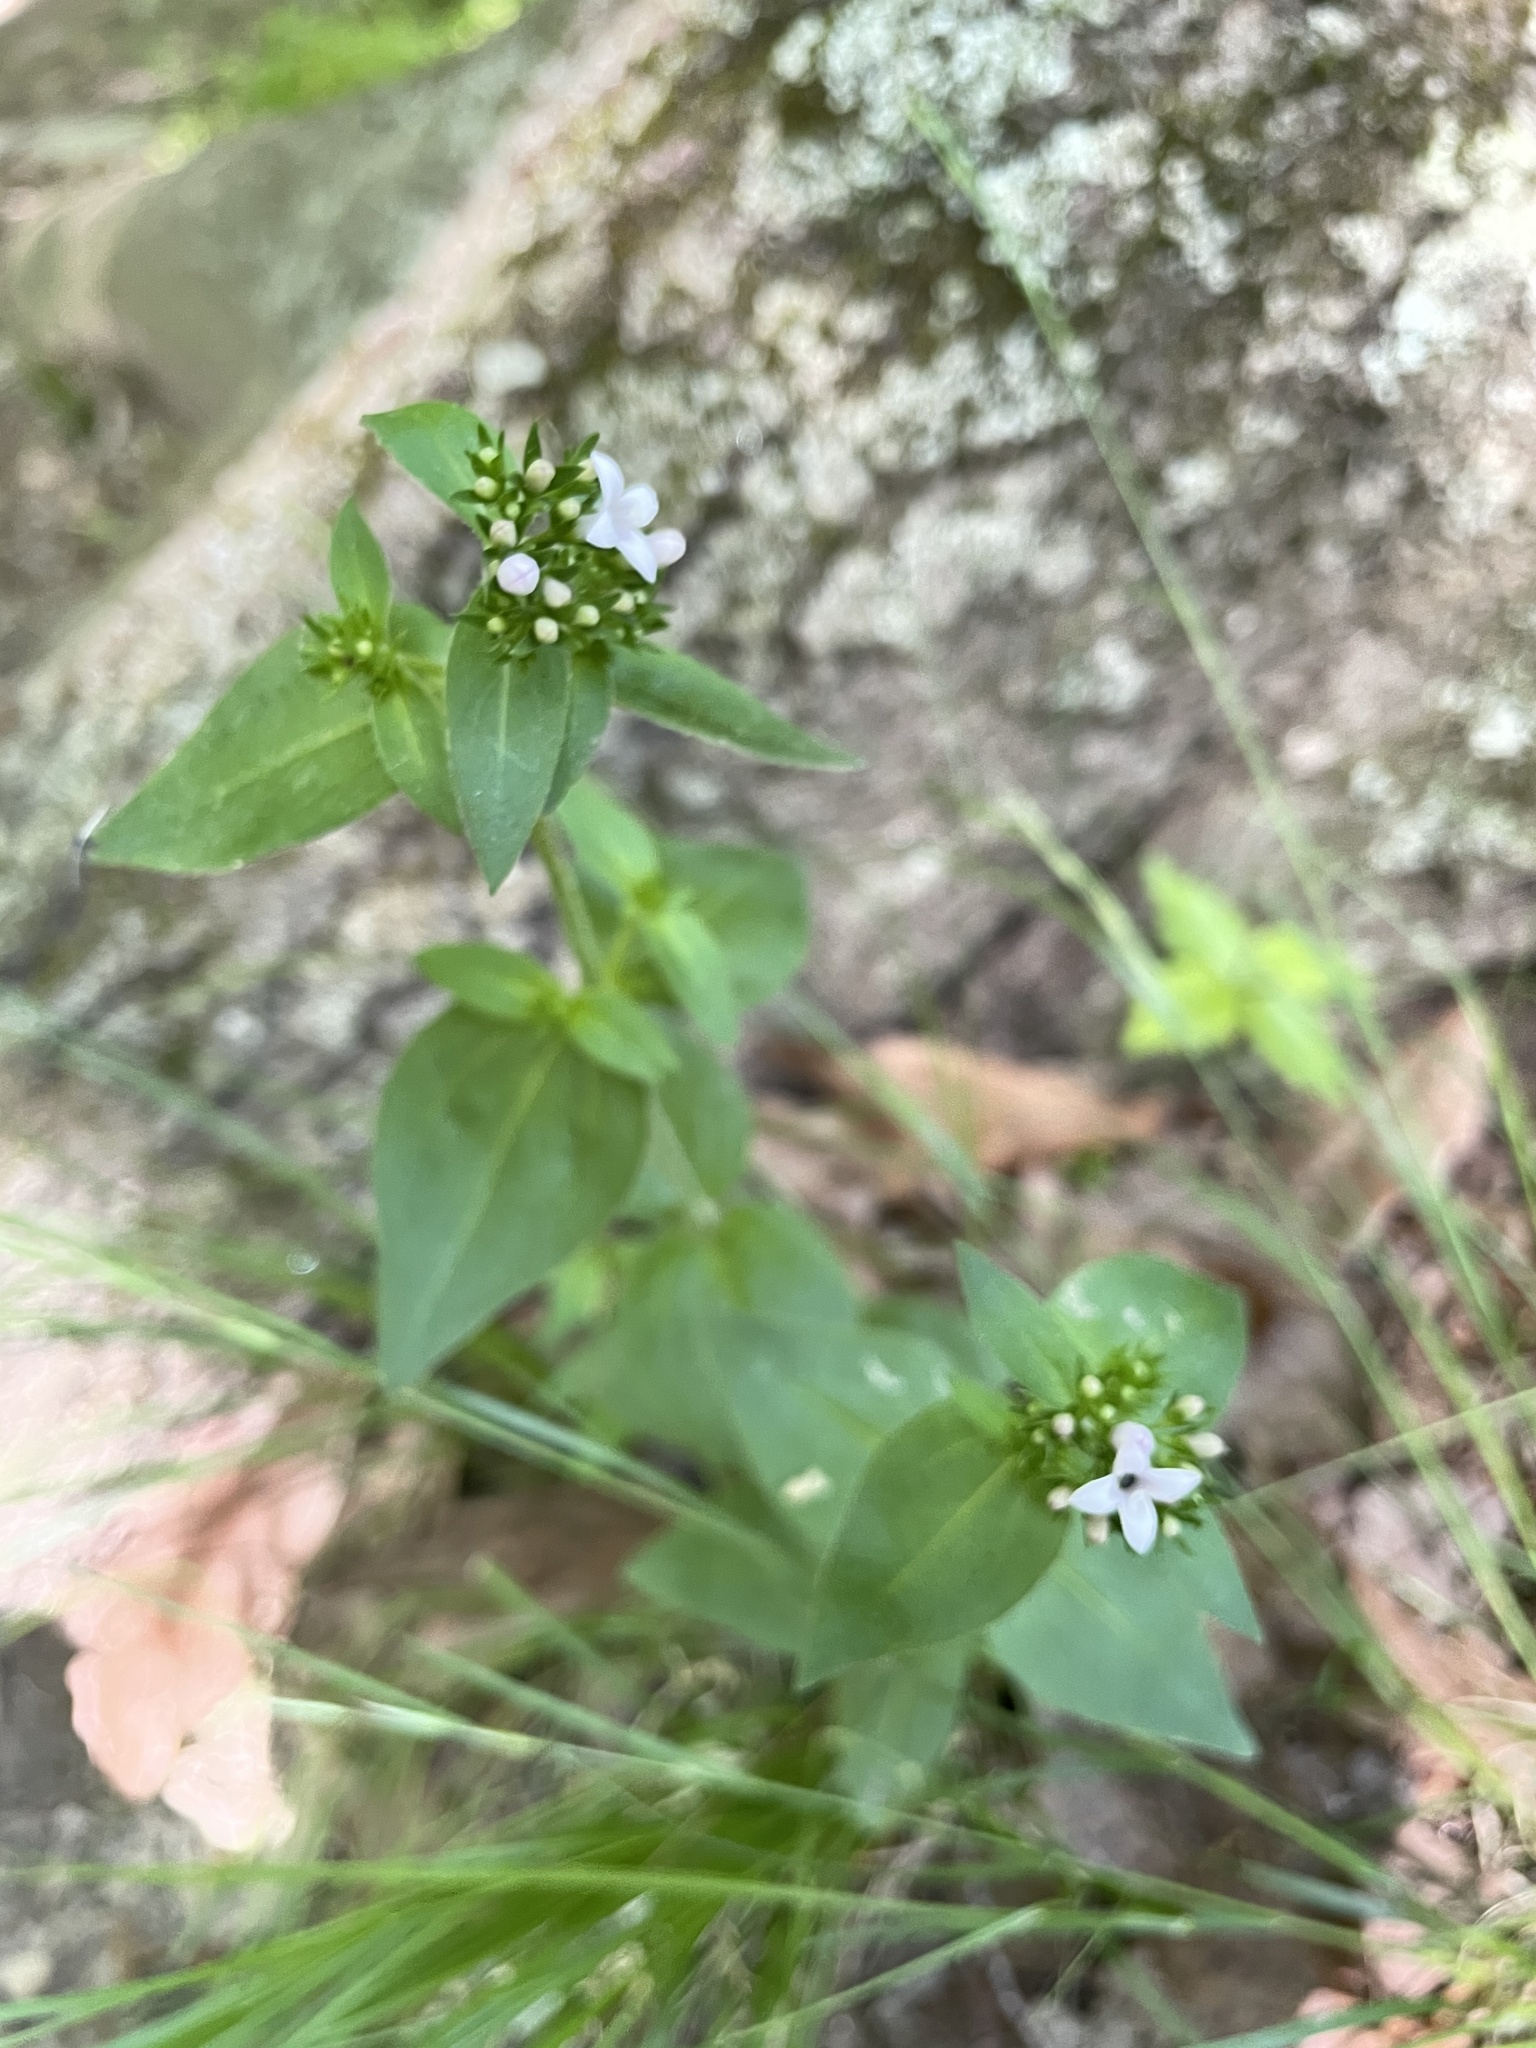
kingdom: Plantae
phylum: Tracheophyta
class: Magnoliopsida
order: Gentianales
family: Rubiaceae
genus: Houstonia
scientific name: Houstonia purpurea
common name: Summer bluet
